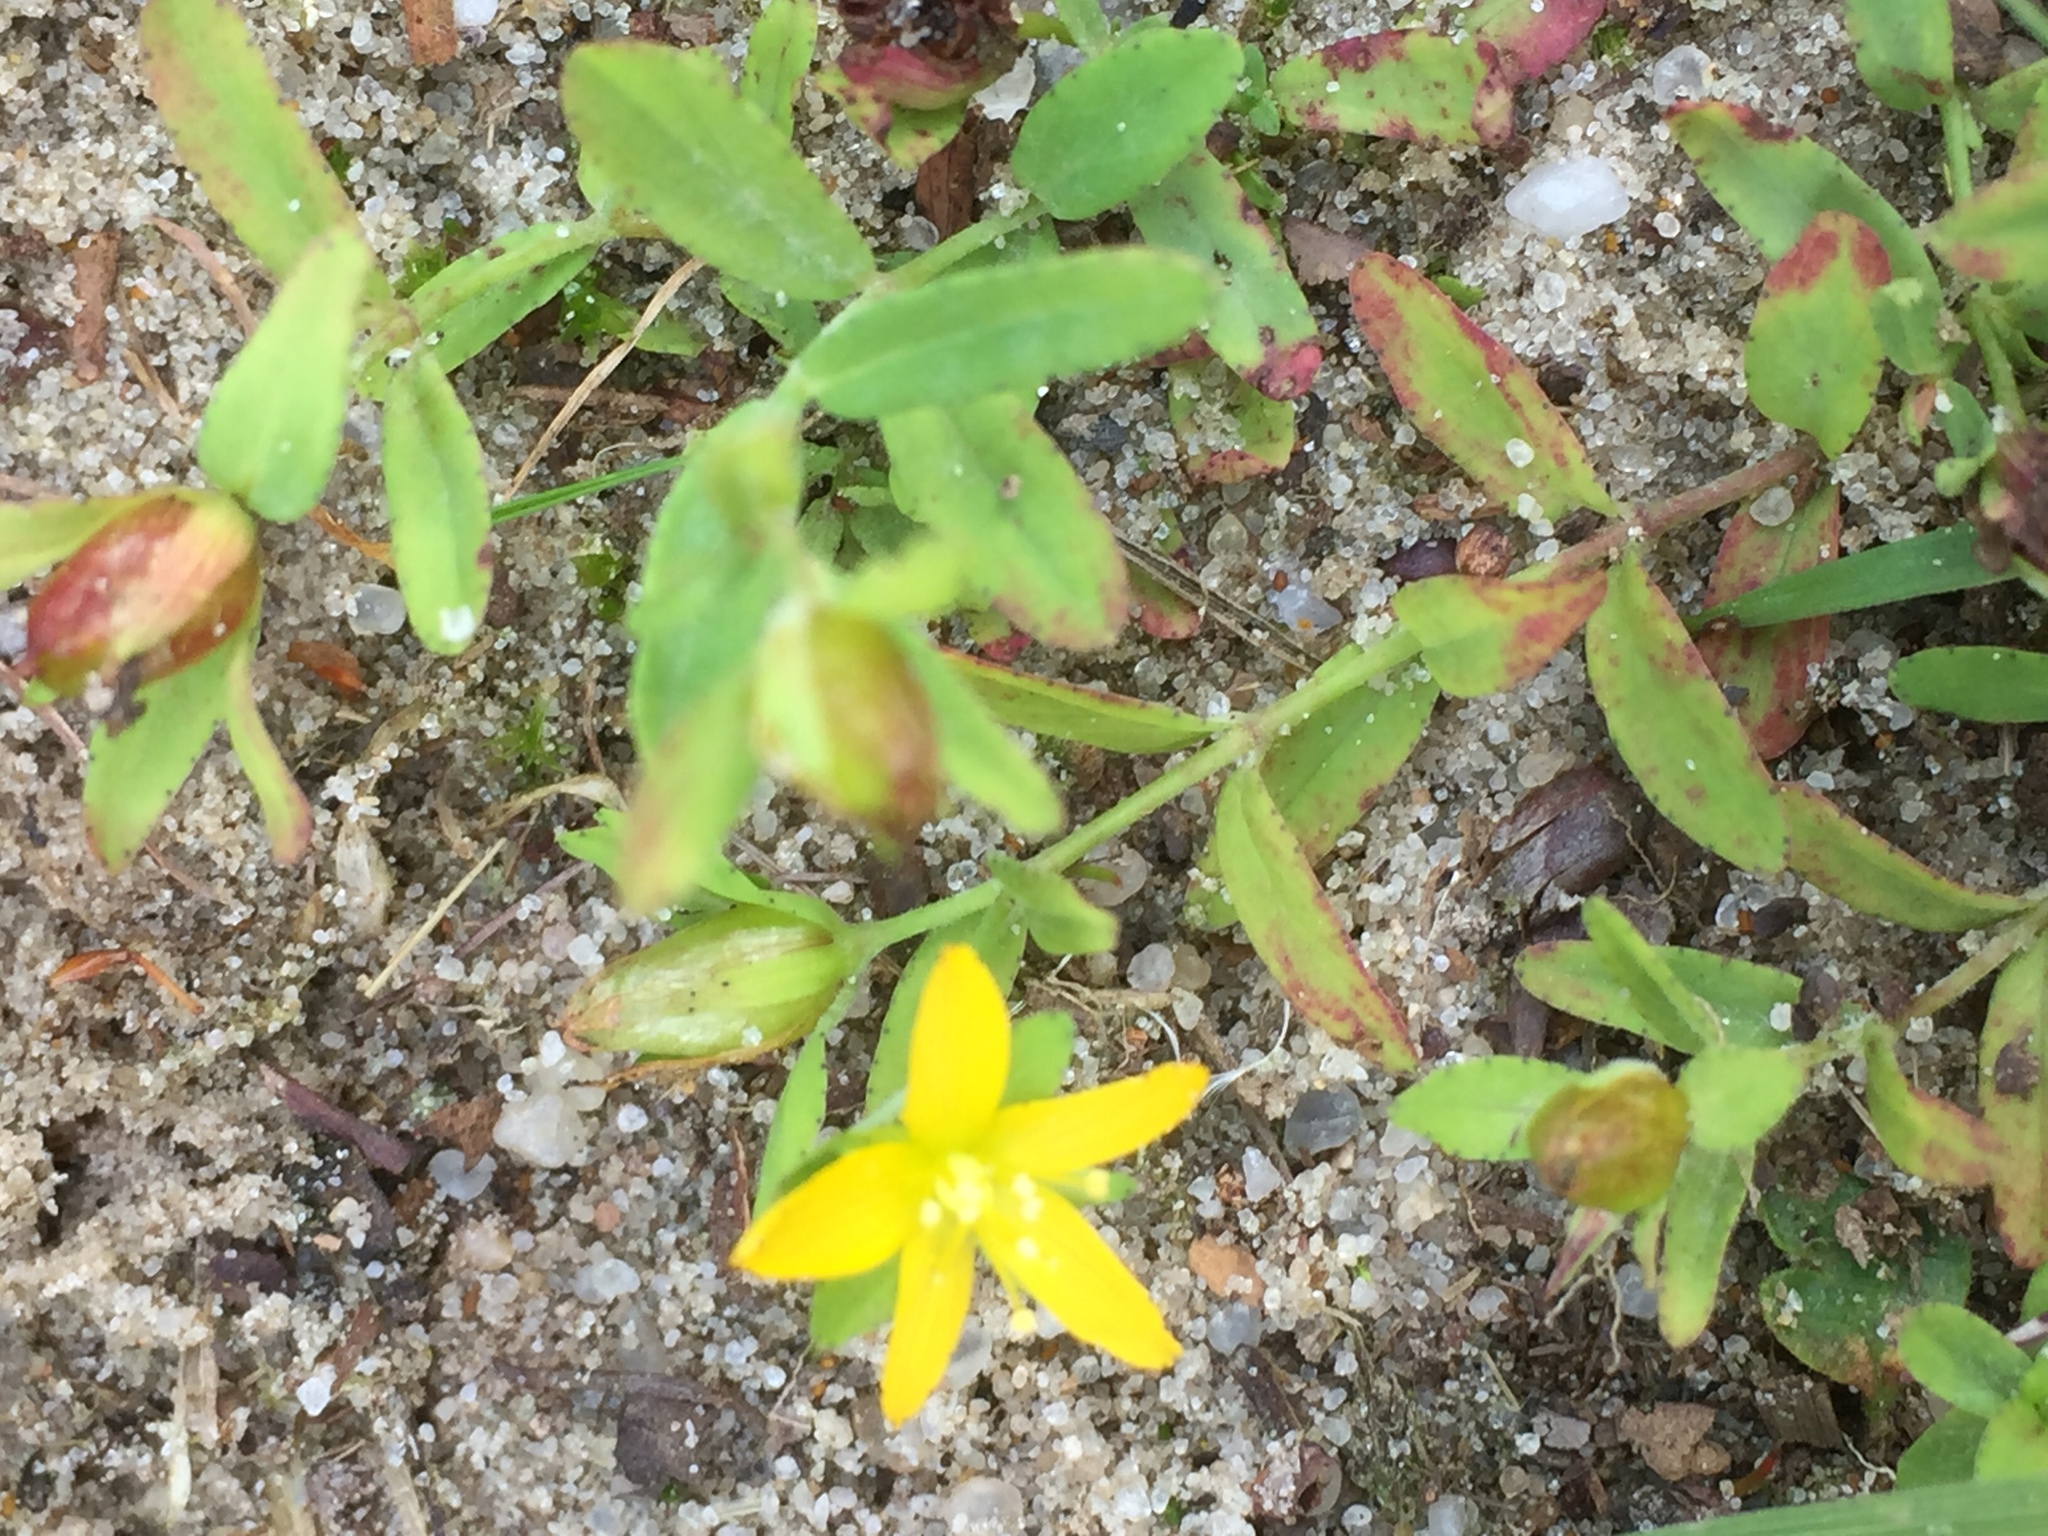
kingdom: Plantae
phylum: Tracheophyta
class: Magnoliopsida
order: Malpighiales
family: Hypericaceae
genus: Hypericum
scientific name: Hypericum humifusum
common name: Trailing st. john's-wort
